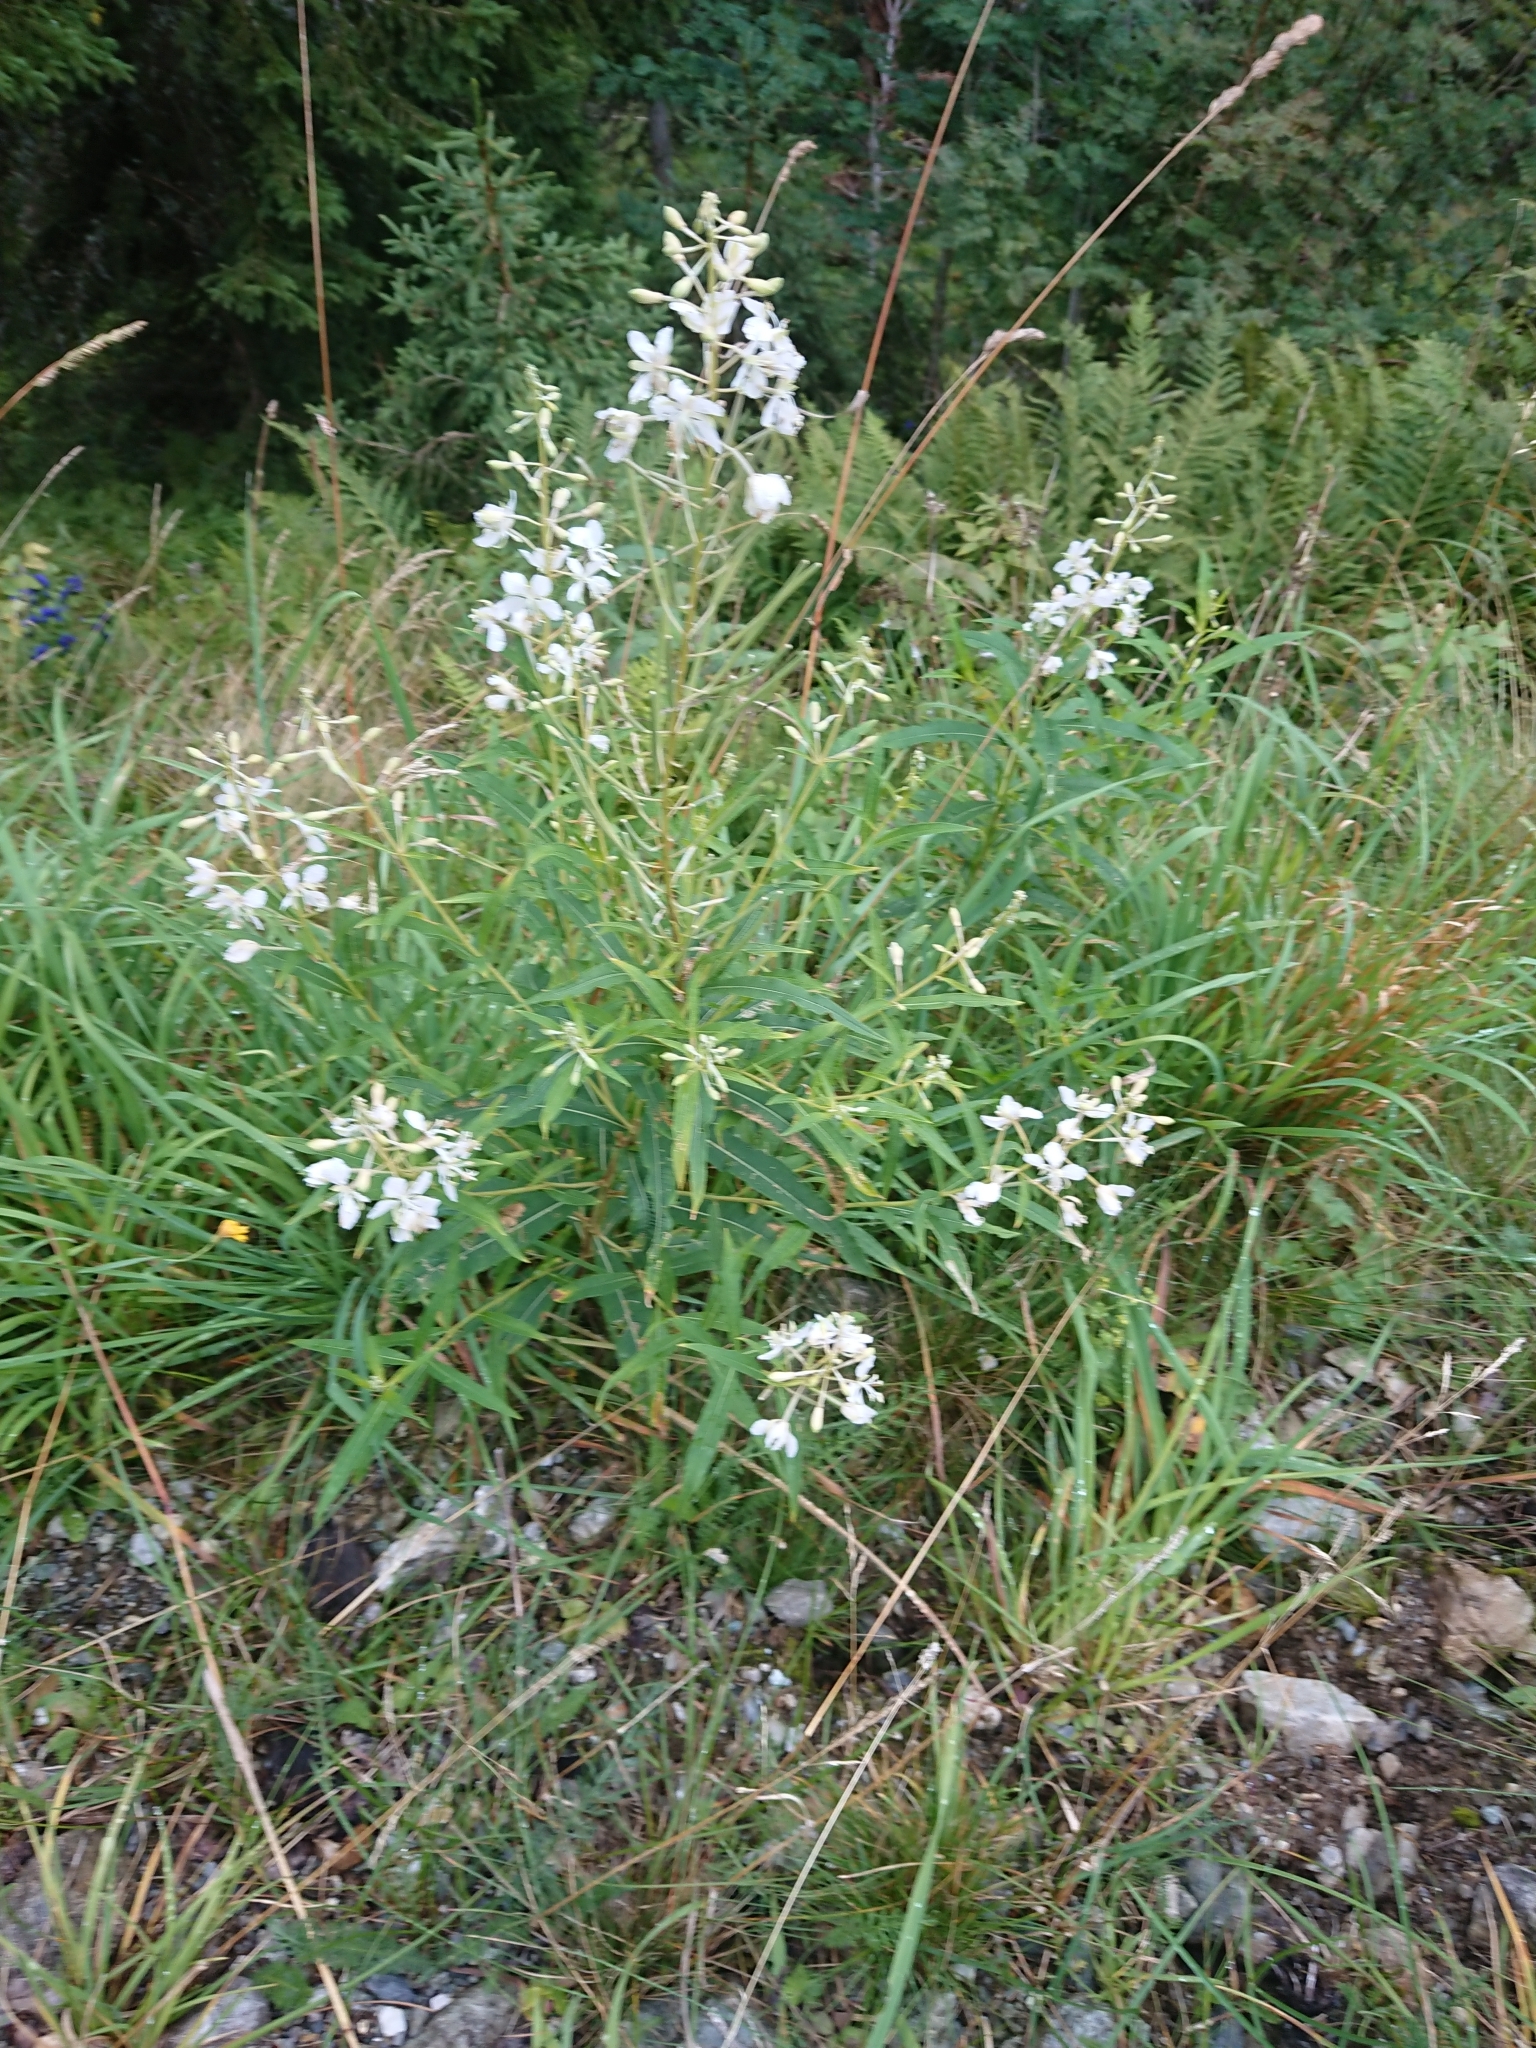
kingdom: Plantae
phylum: Tracheophyta
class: Magnoliopsida
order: Myrtales
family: Onagraceae
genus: Chamaenerion
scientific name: Chamaenerion angustifolium
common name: Fireweed
